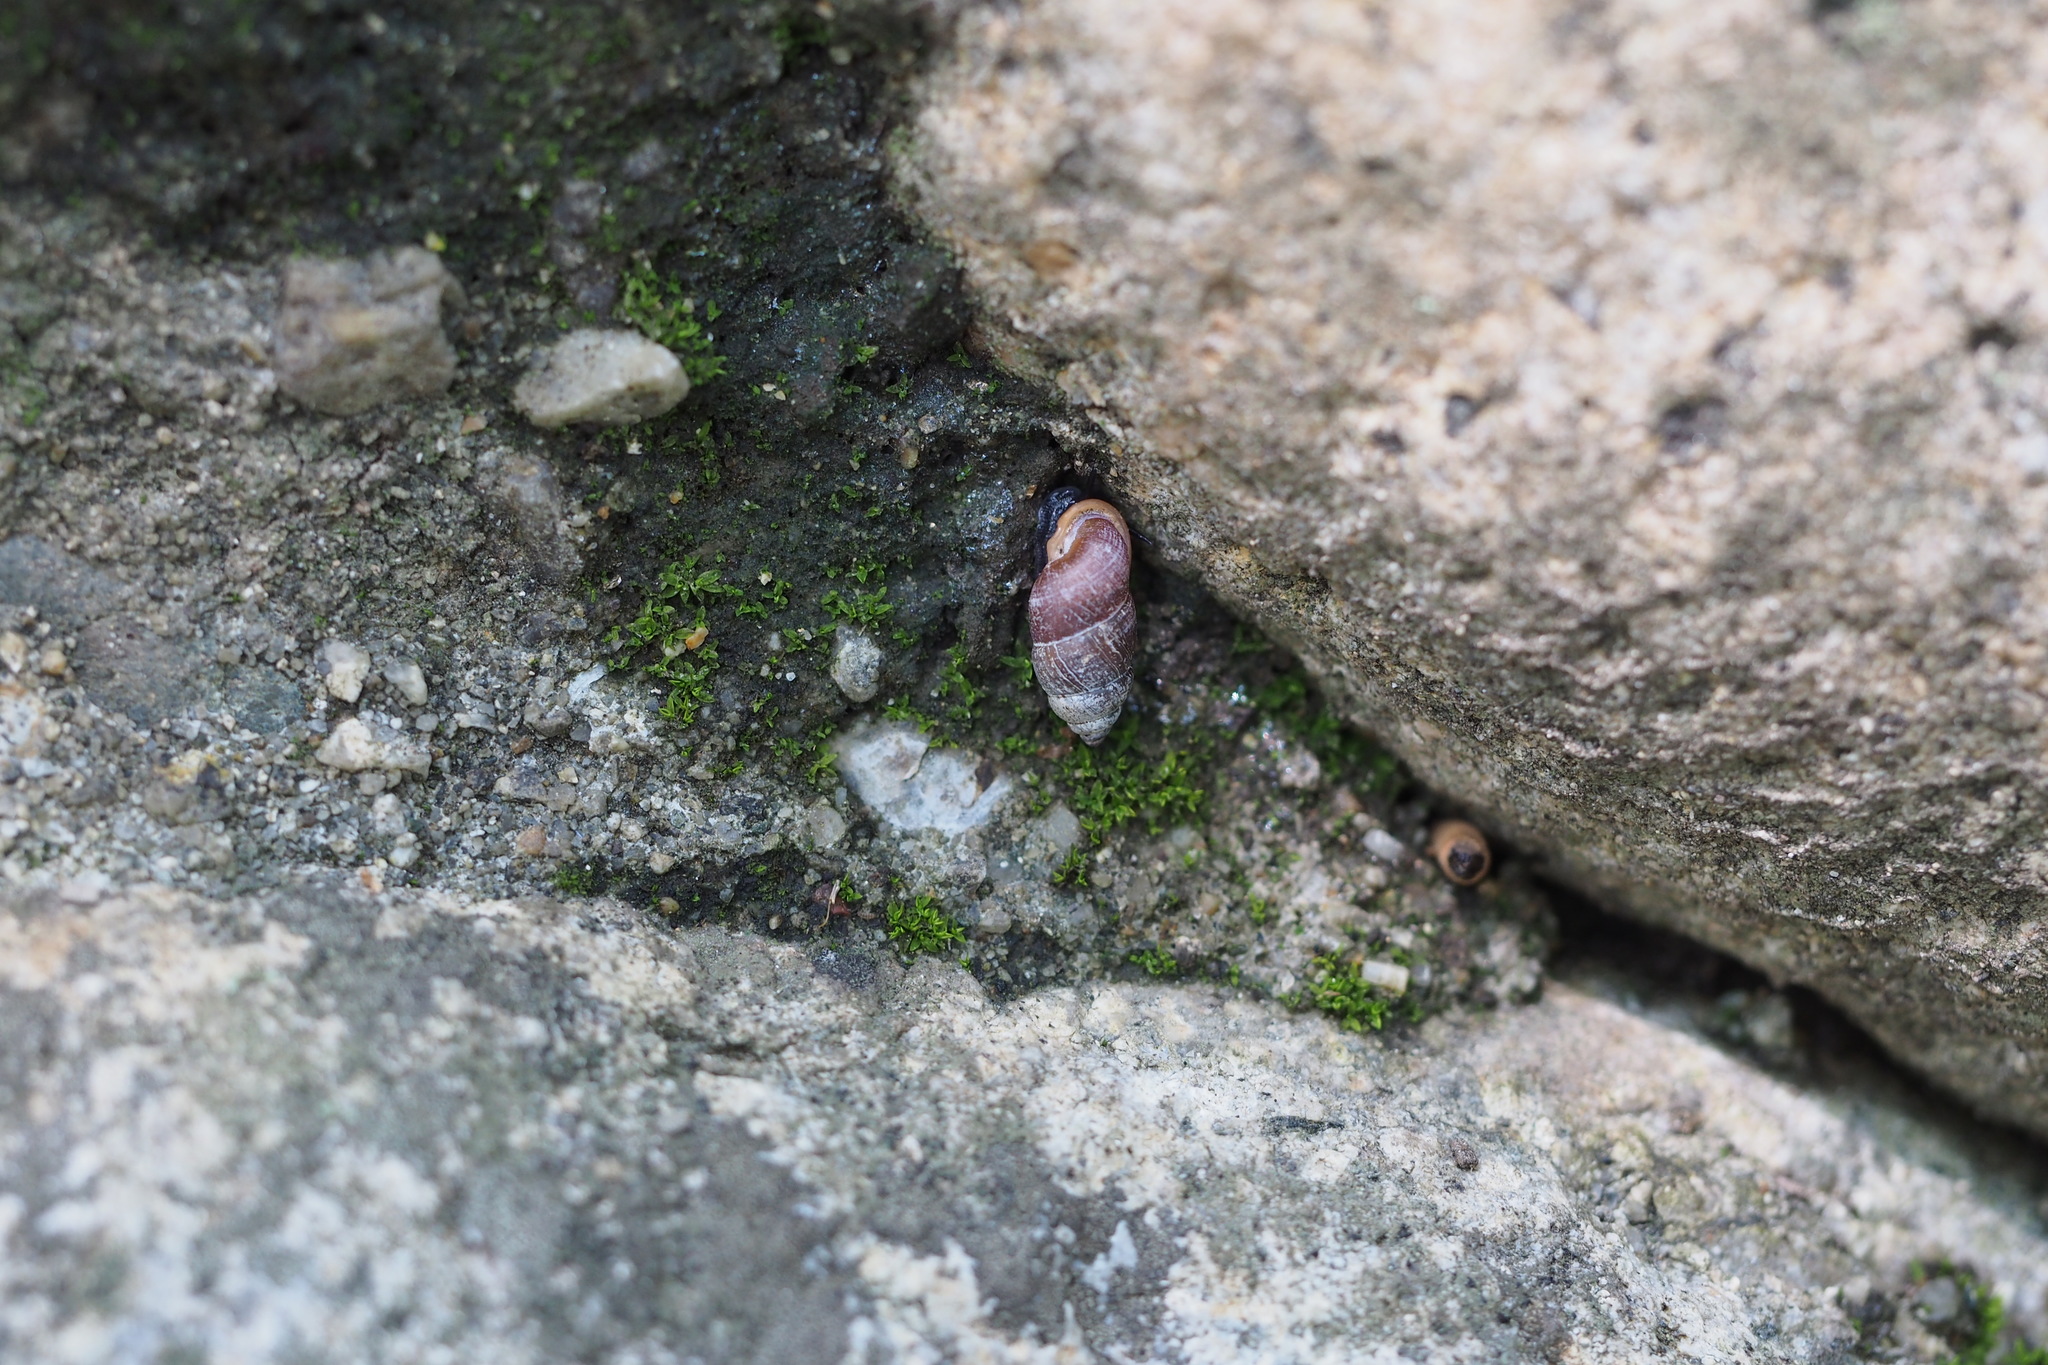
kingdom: Animalia
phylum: Mollusca
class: Gastropoda
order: Architaenioglossa
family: Pupinidae
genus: Pupinella
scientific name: Pupinella rufa
